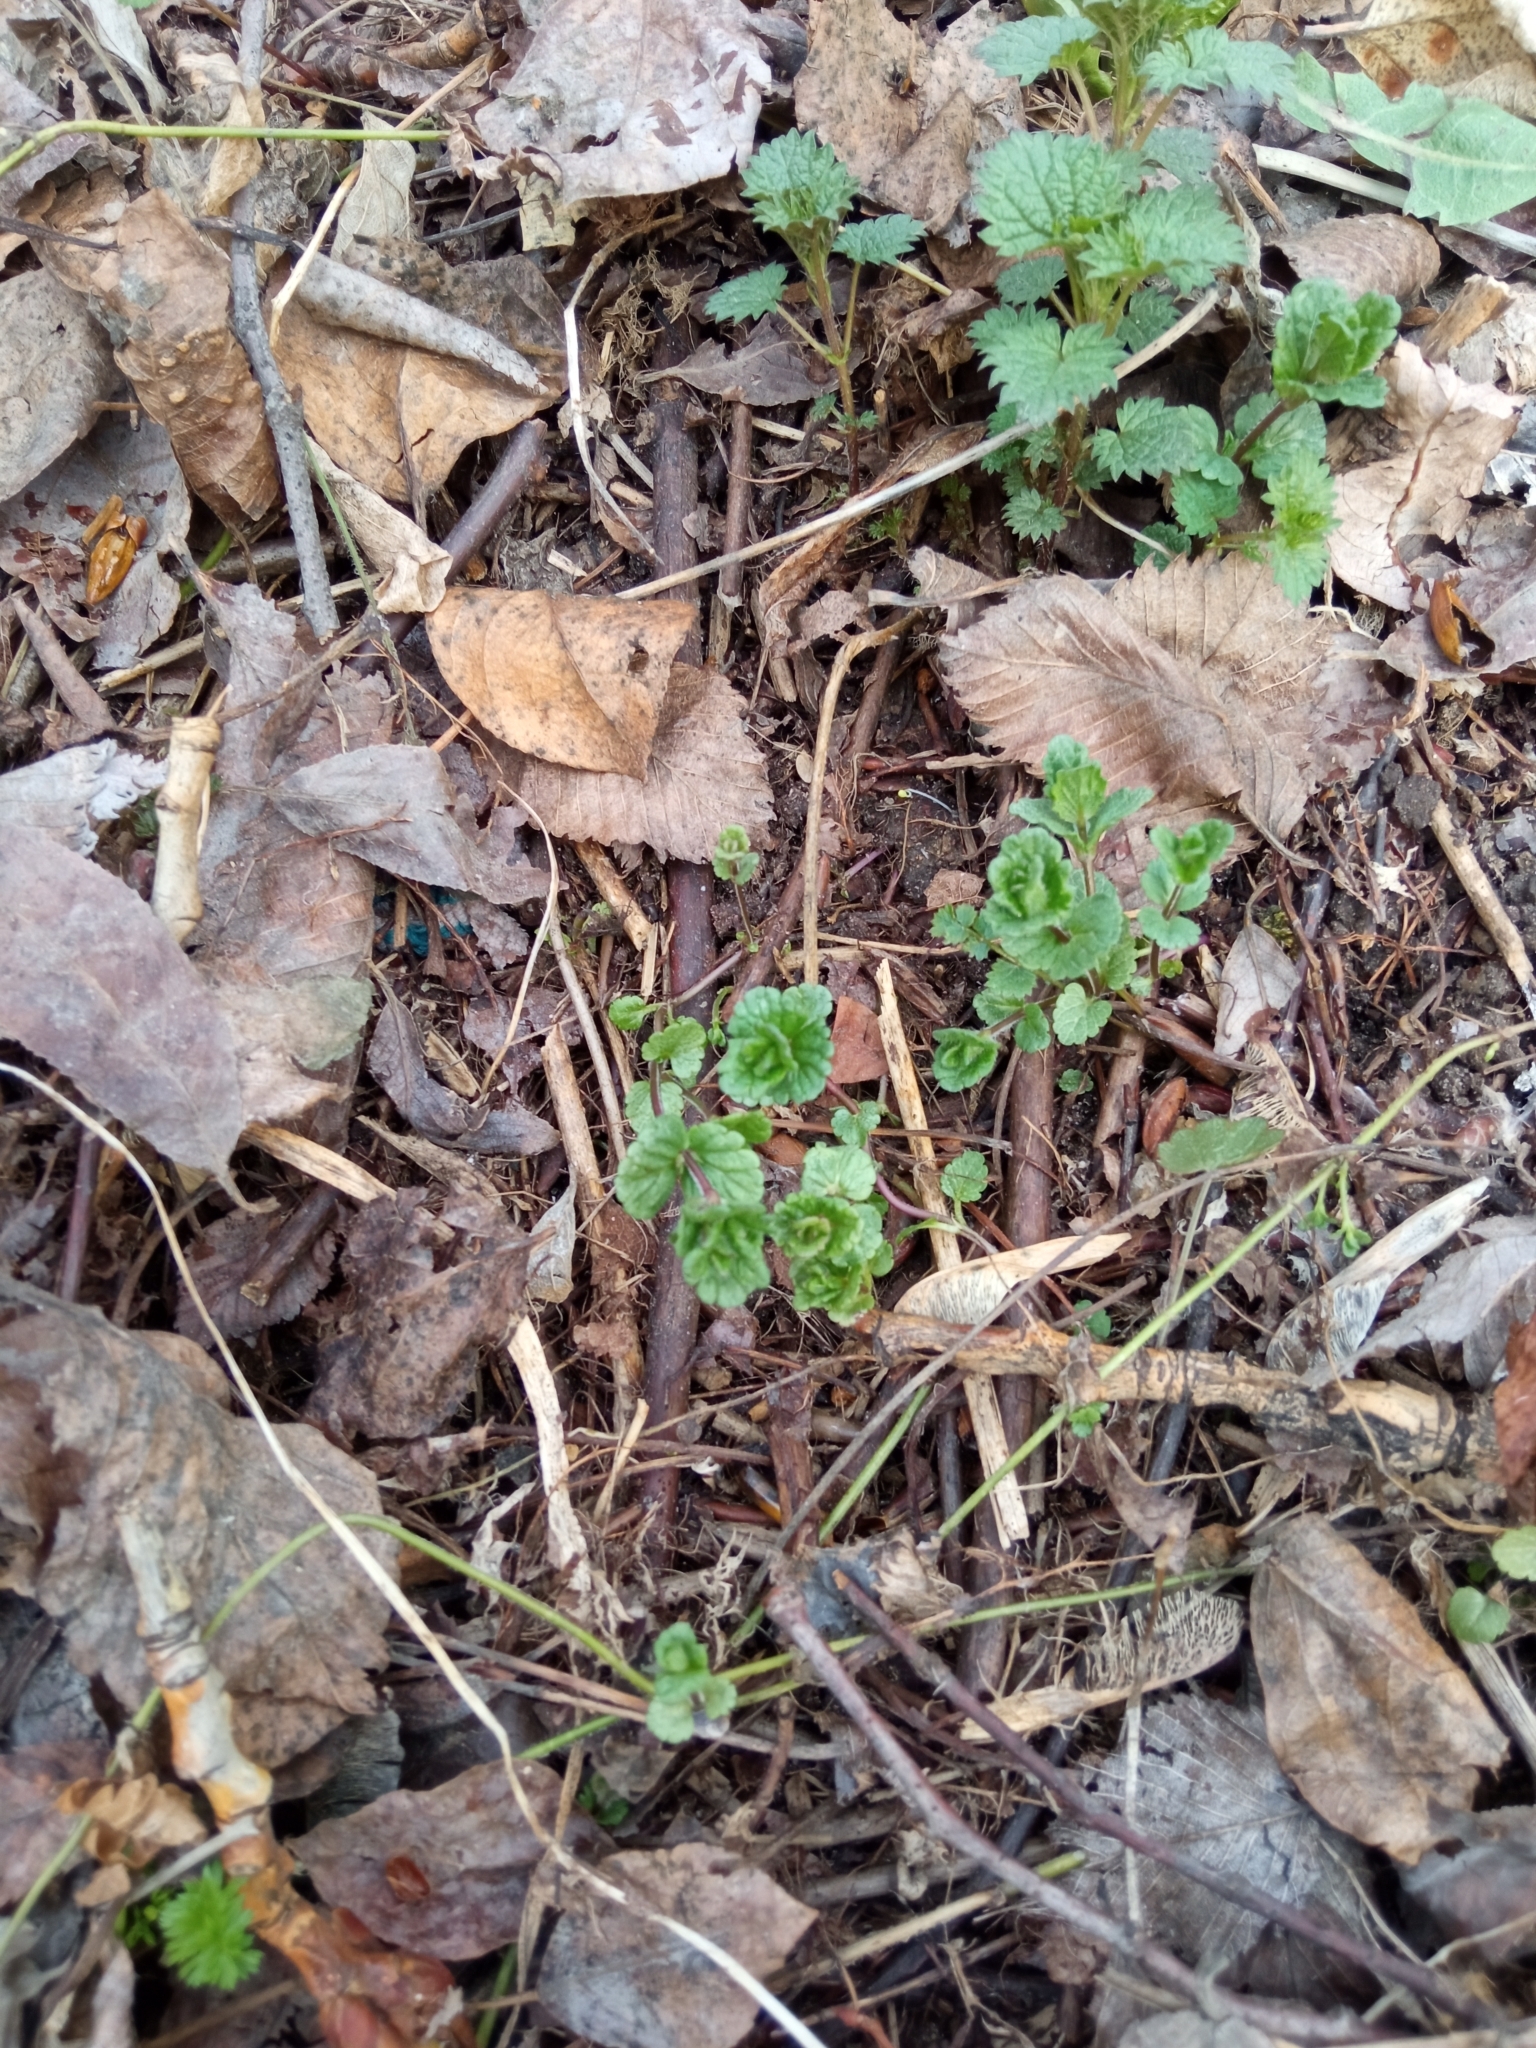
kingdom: Plantae
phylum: Tracheophyta
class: Magnoliopsida
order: Lamiales
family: Plantaginaceae
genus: Veronica
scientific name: Veronica chamaedrys
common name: Germander speedwell
